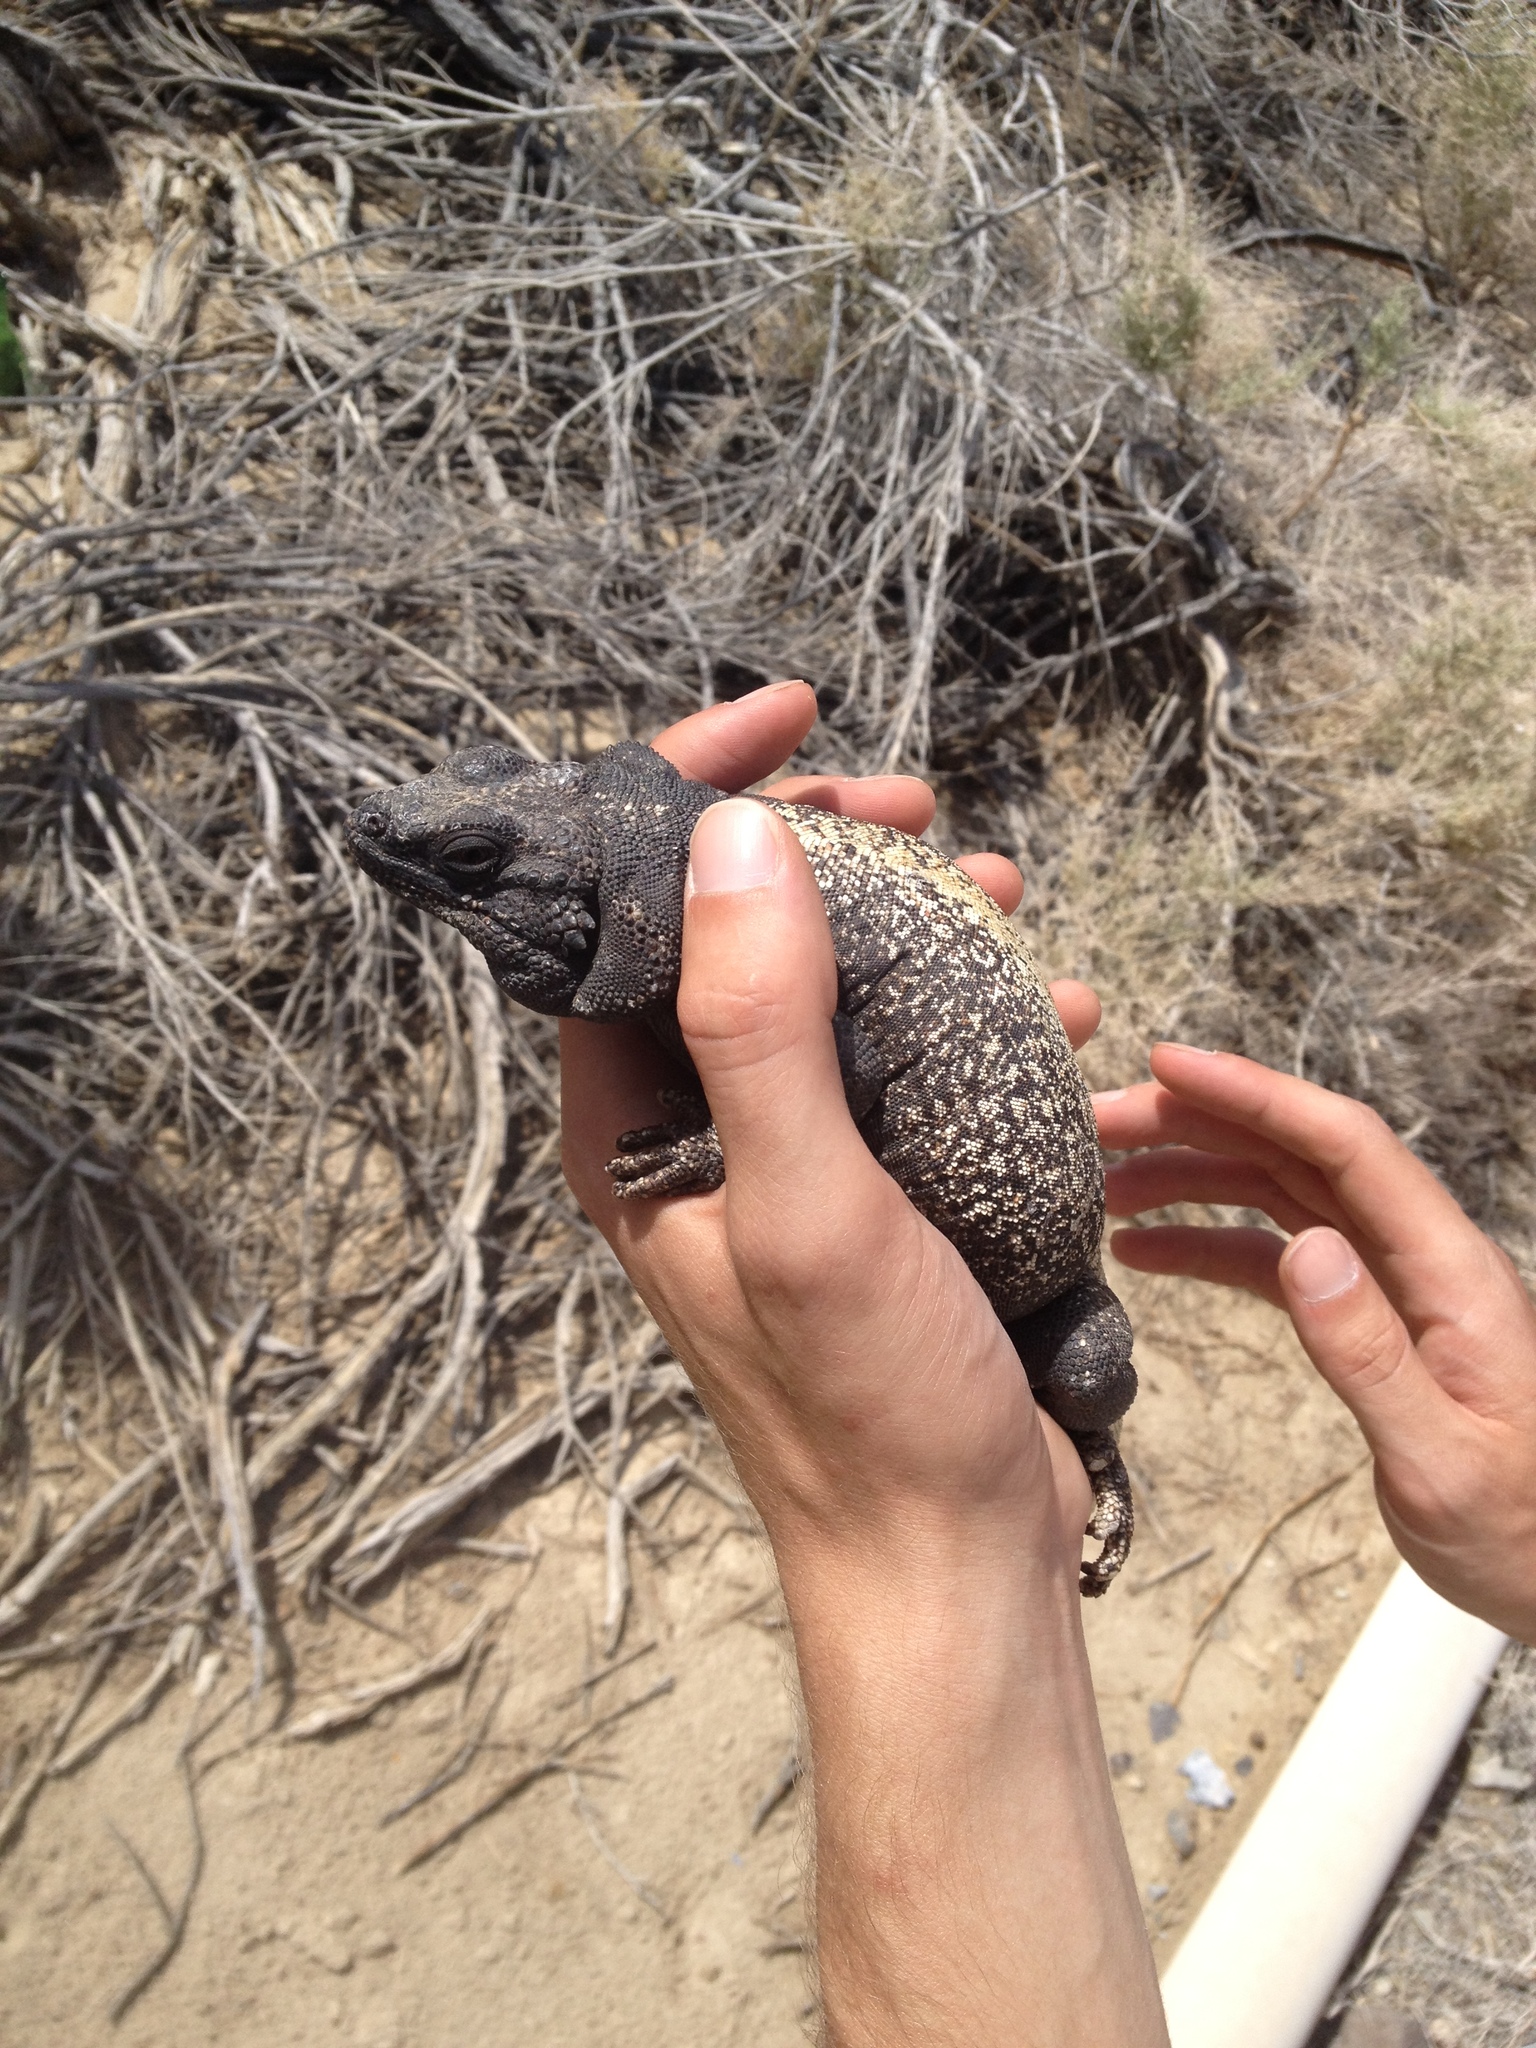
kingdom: Animalia
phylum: Chordata
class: Squamata
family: Iguanidae
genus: Sauromalus
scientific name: Sauromalus ater
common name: Northern chuckwalla
